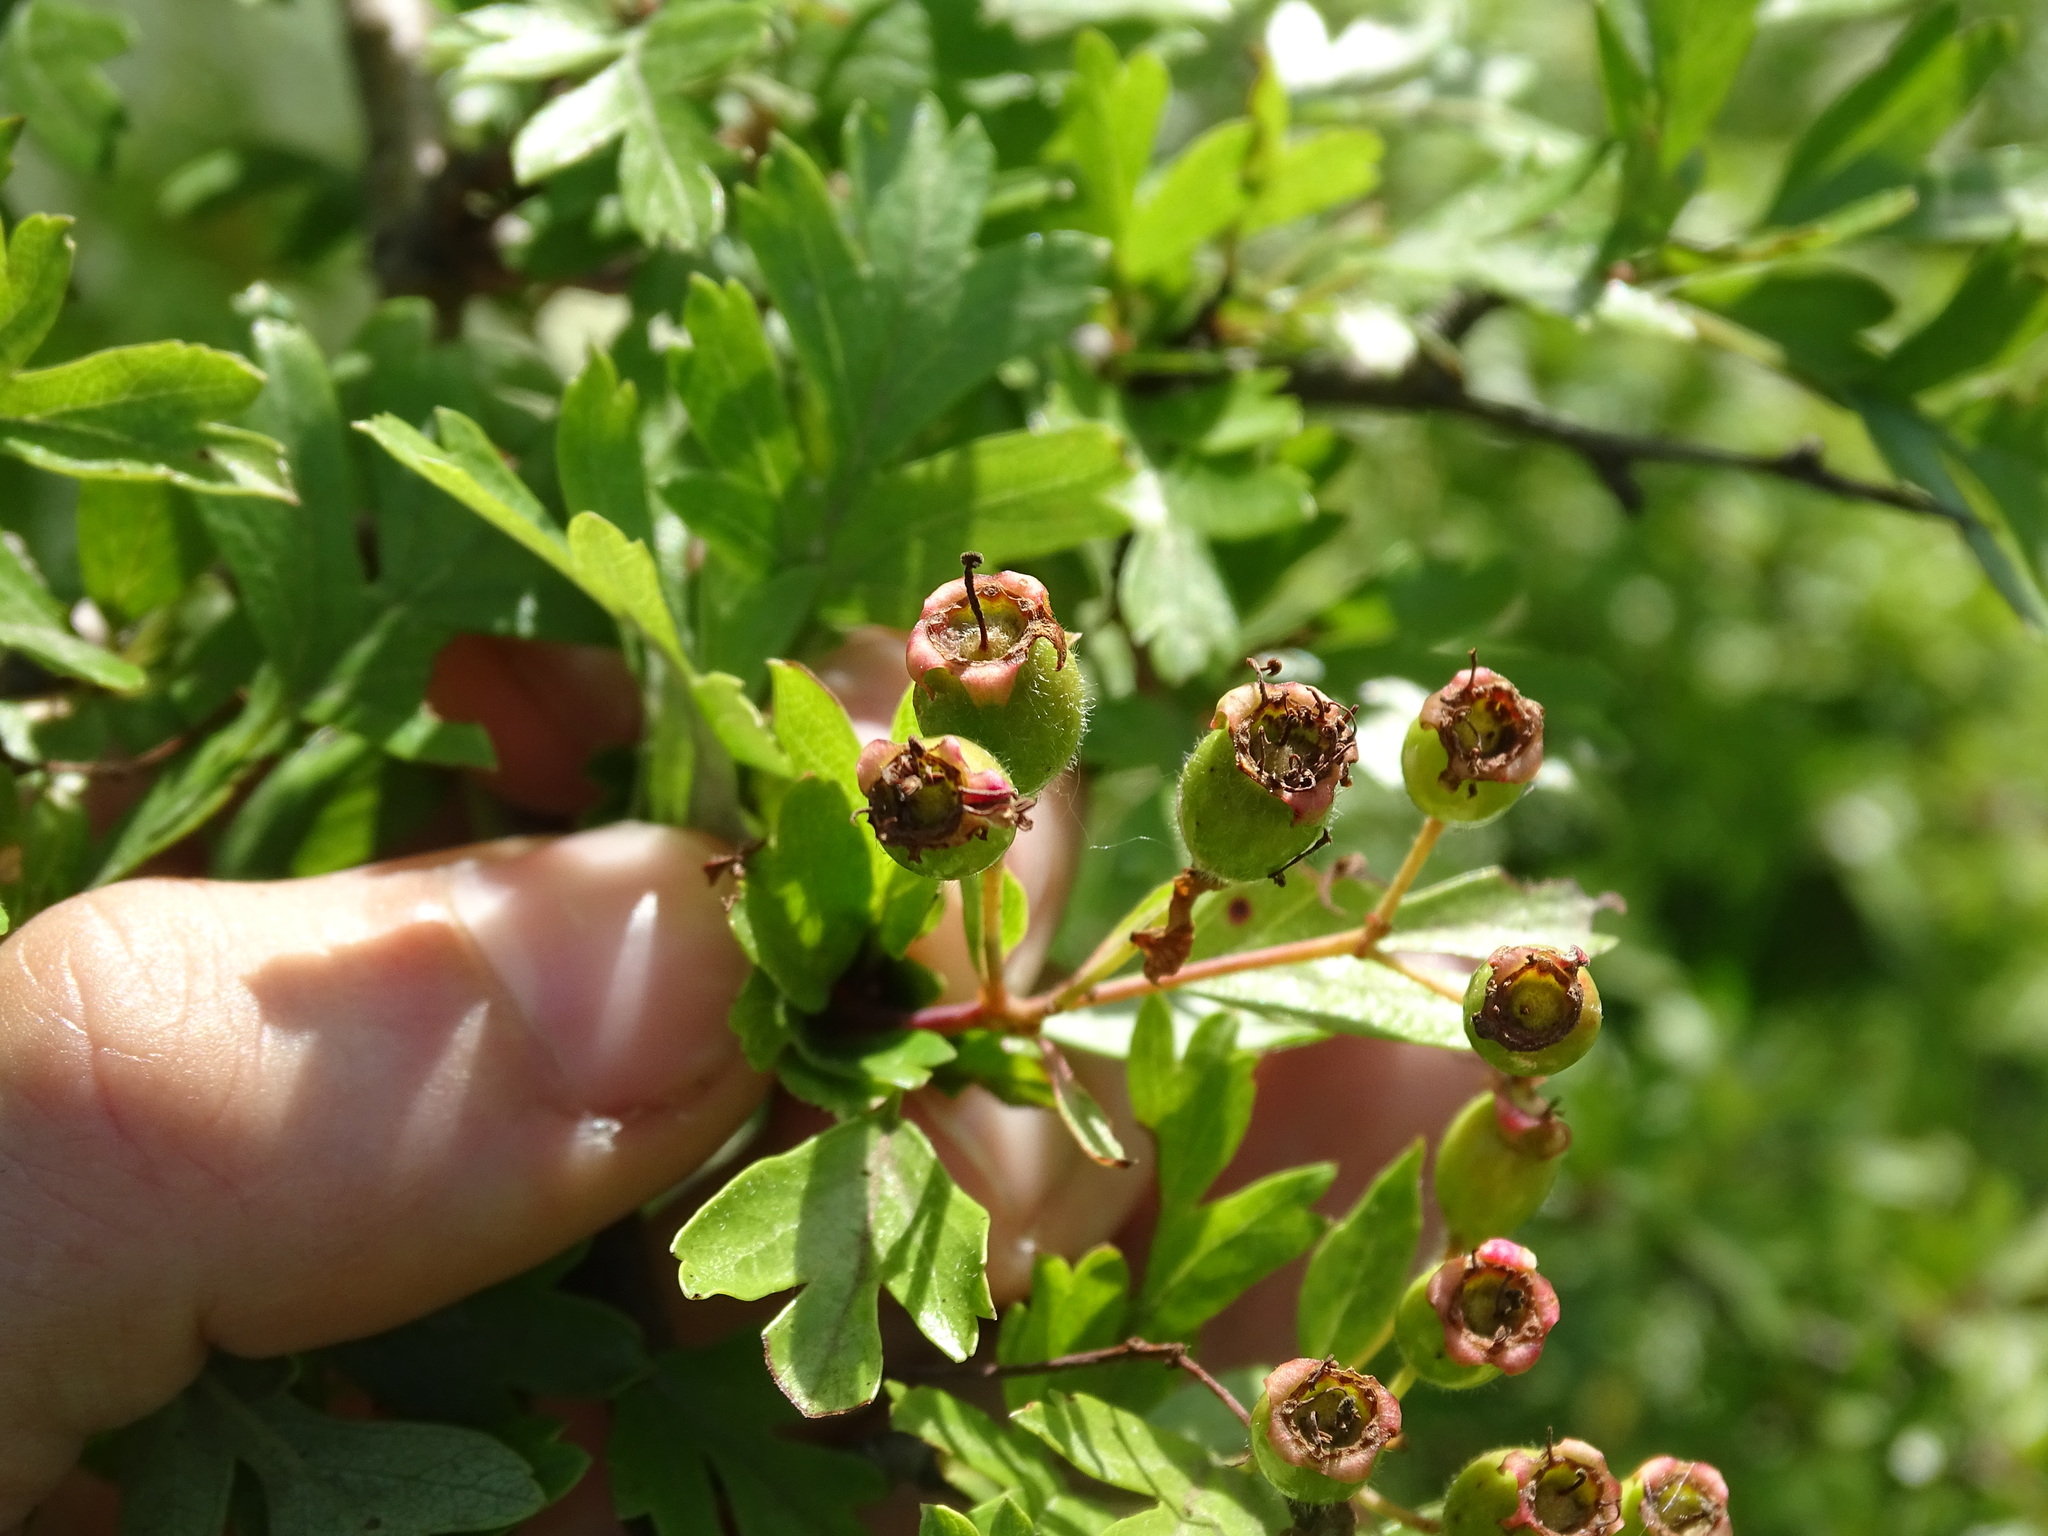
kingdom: Plantae
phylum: Tracheophyta
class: Magnoliopsida
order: Rosales
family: Rosaceae
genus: Crataegus
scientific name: Crataegus monogyna
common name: Hawthorn
